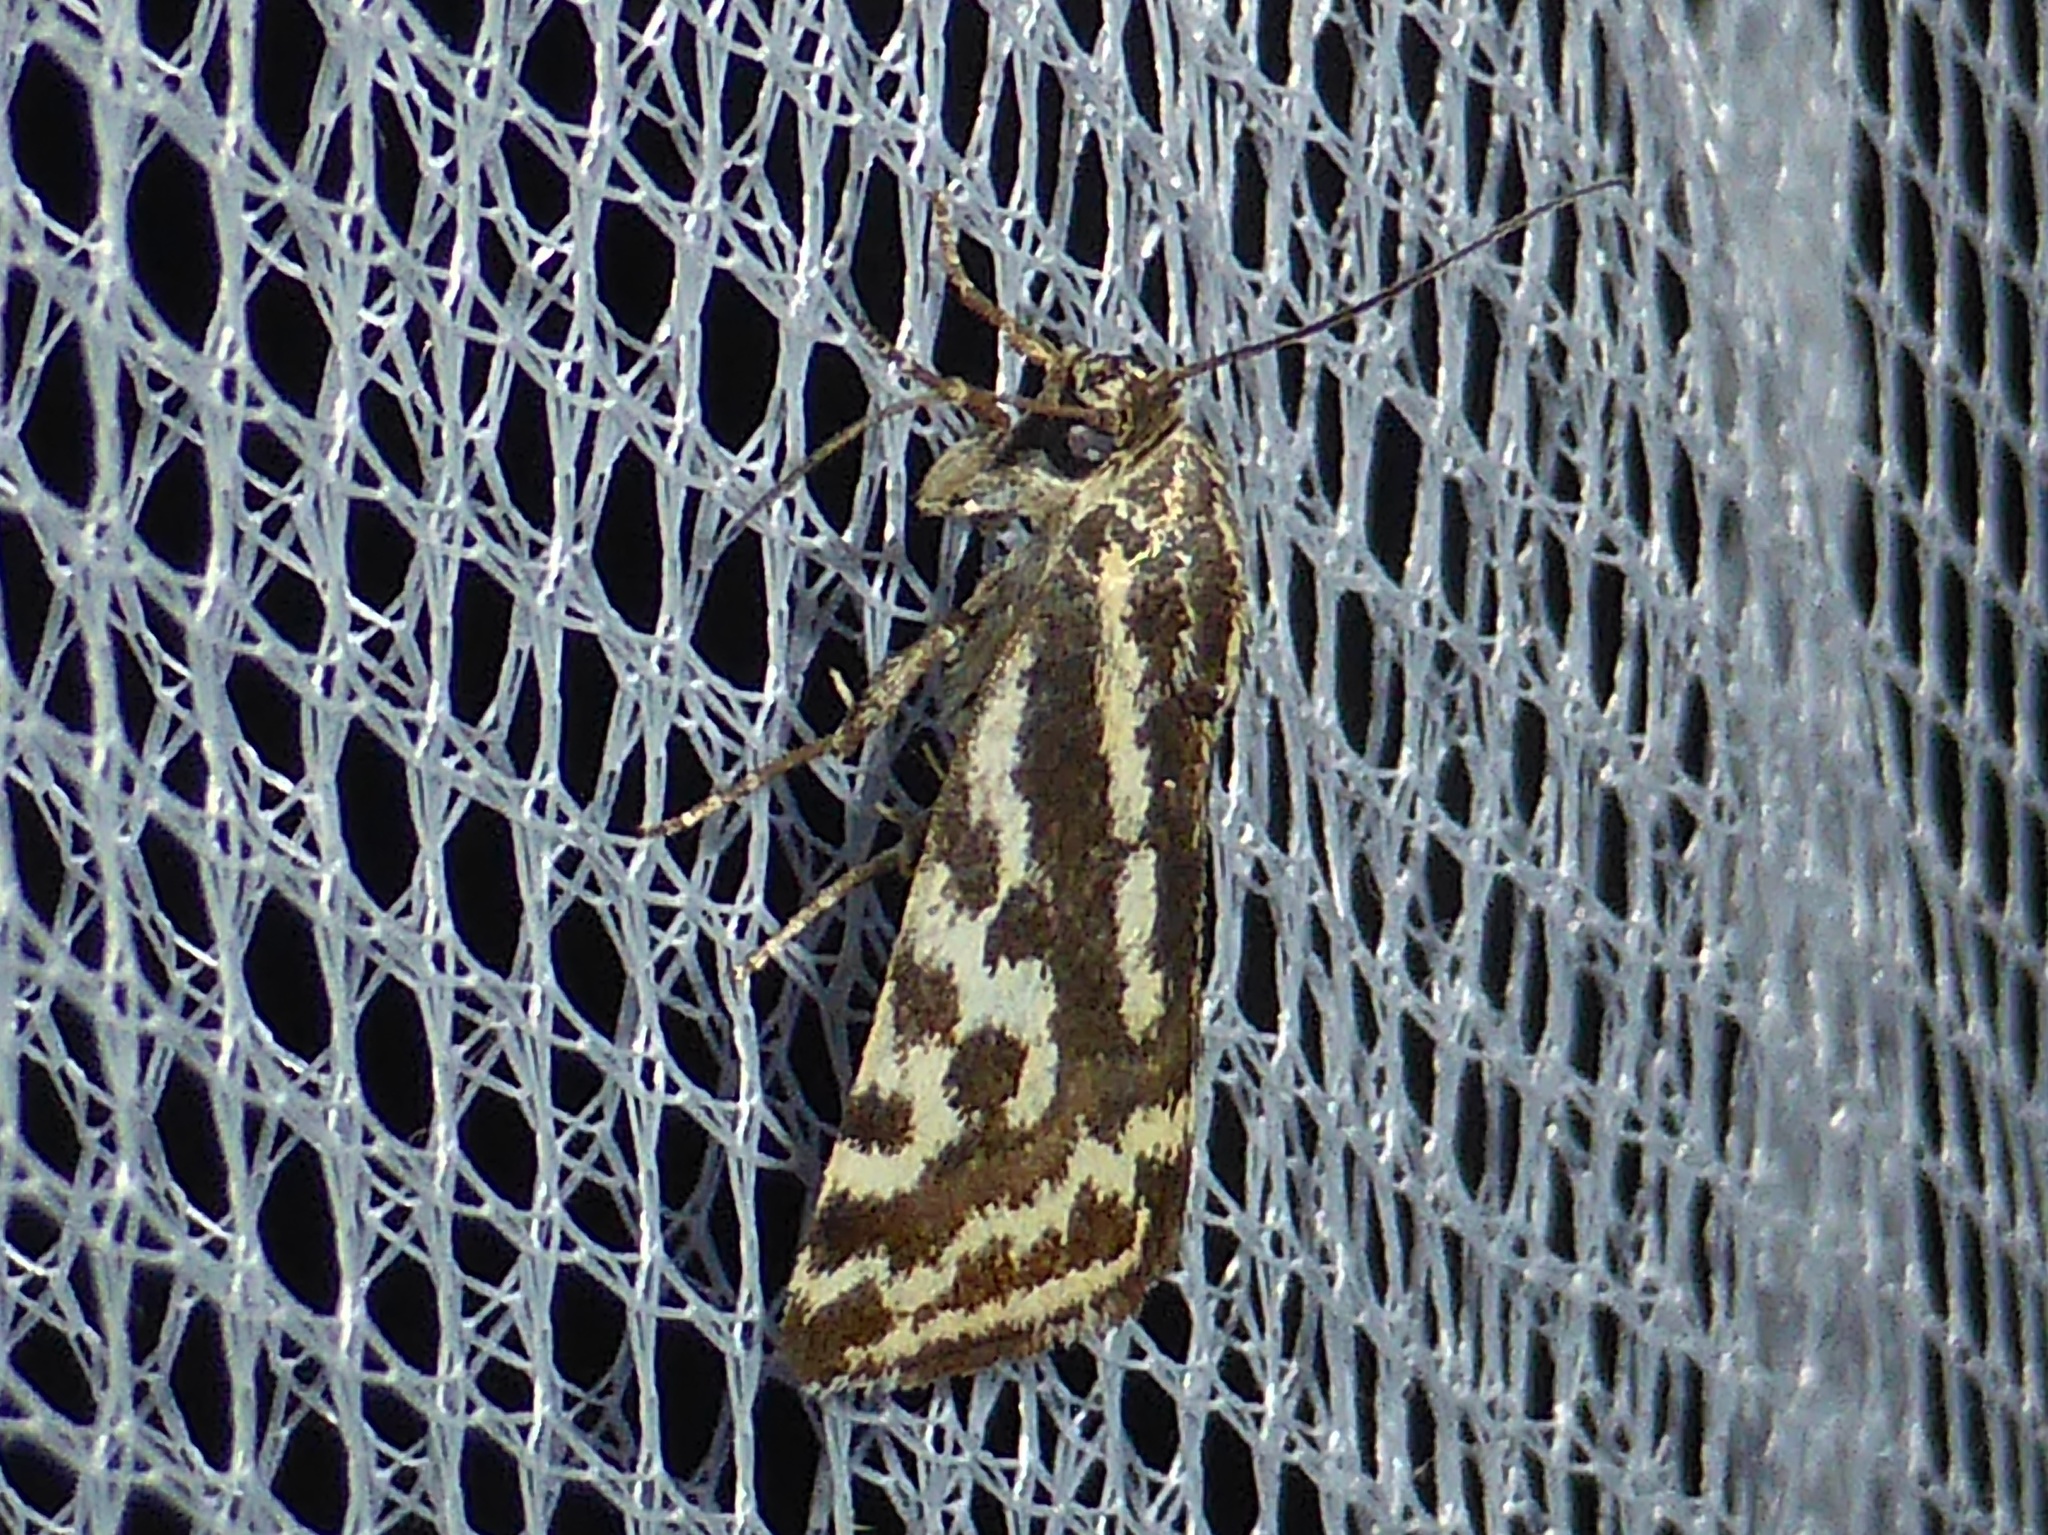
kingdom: Animalia
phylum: Arthropoda
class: Insecta
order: Lepidoptera
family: Noctuidae
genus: Acontia
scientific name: Acontia trabealis
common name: Spotted sulphur
